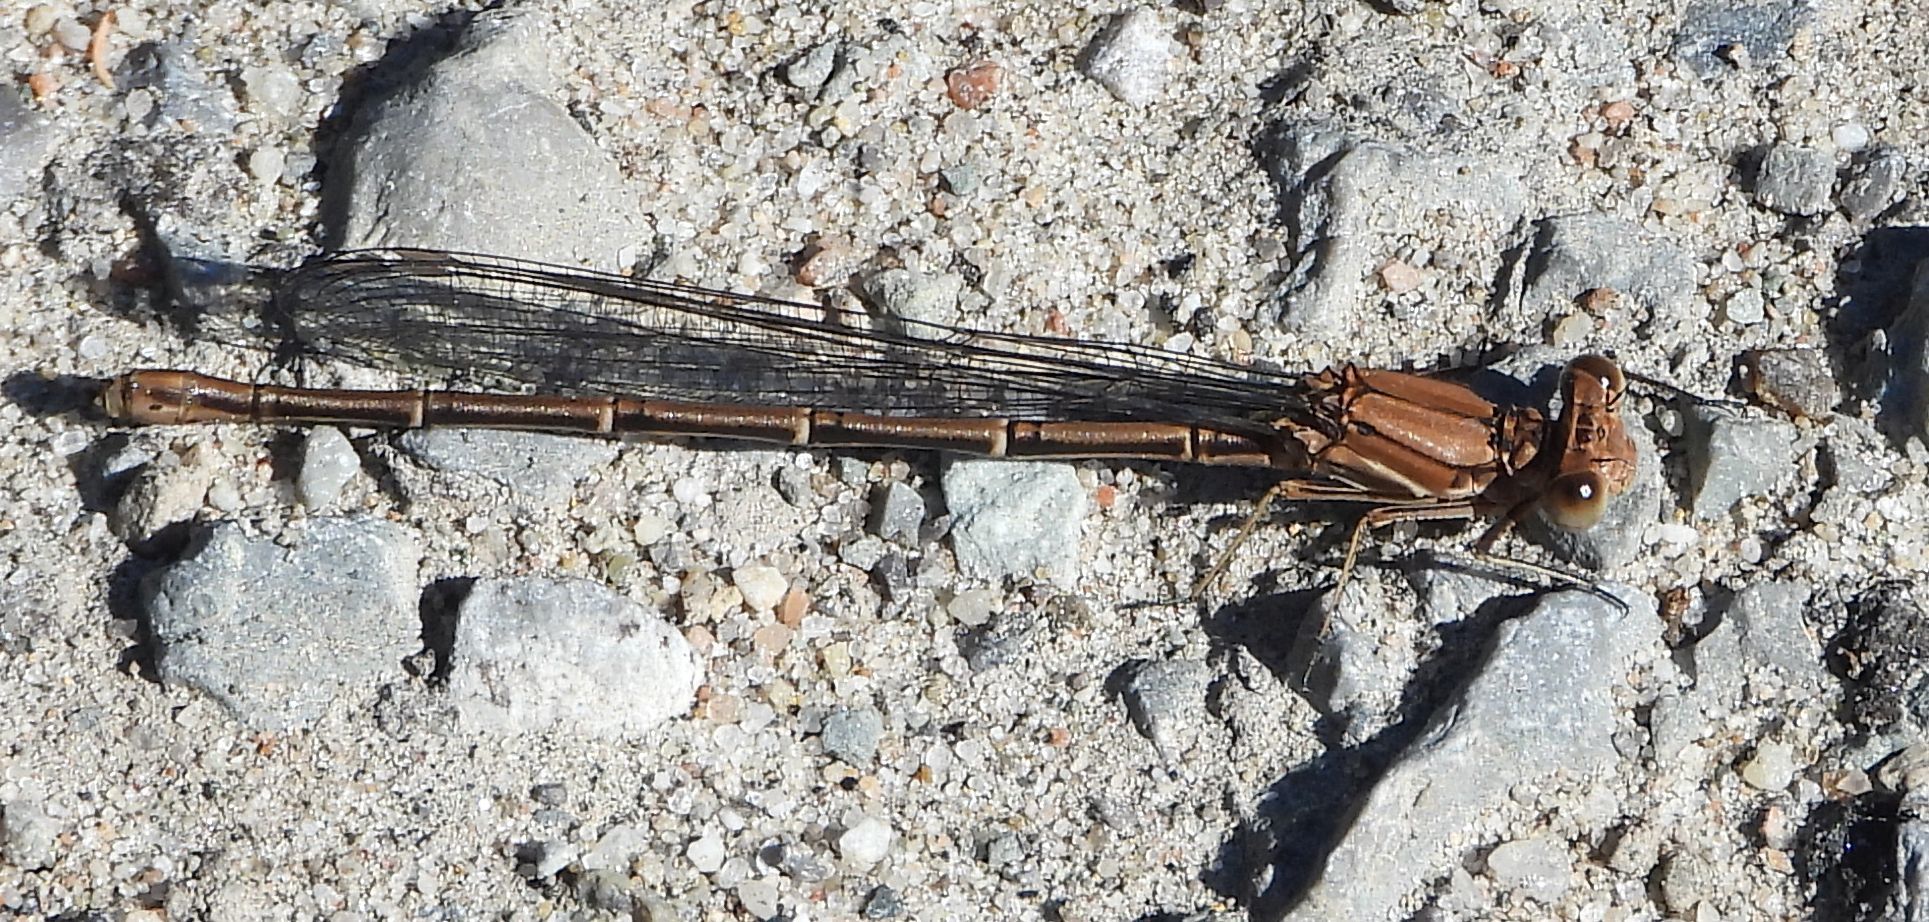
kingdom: Animalia
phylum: Arthropoda
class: Insecta
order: Odonata
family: Coenagrionidae
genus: Argia
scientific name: Argia moesta
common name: Powdered dancer
